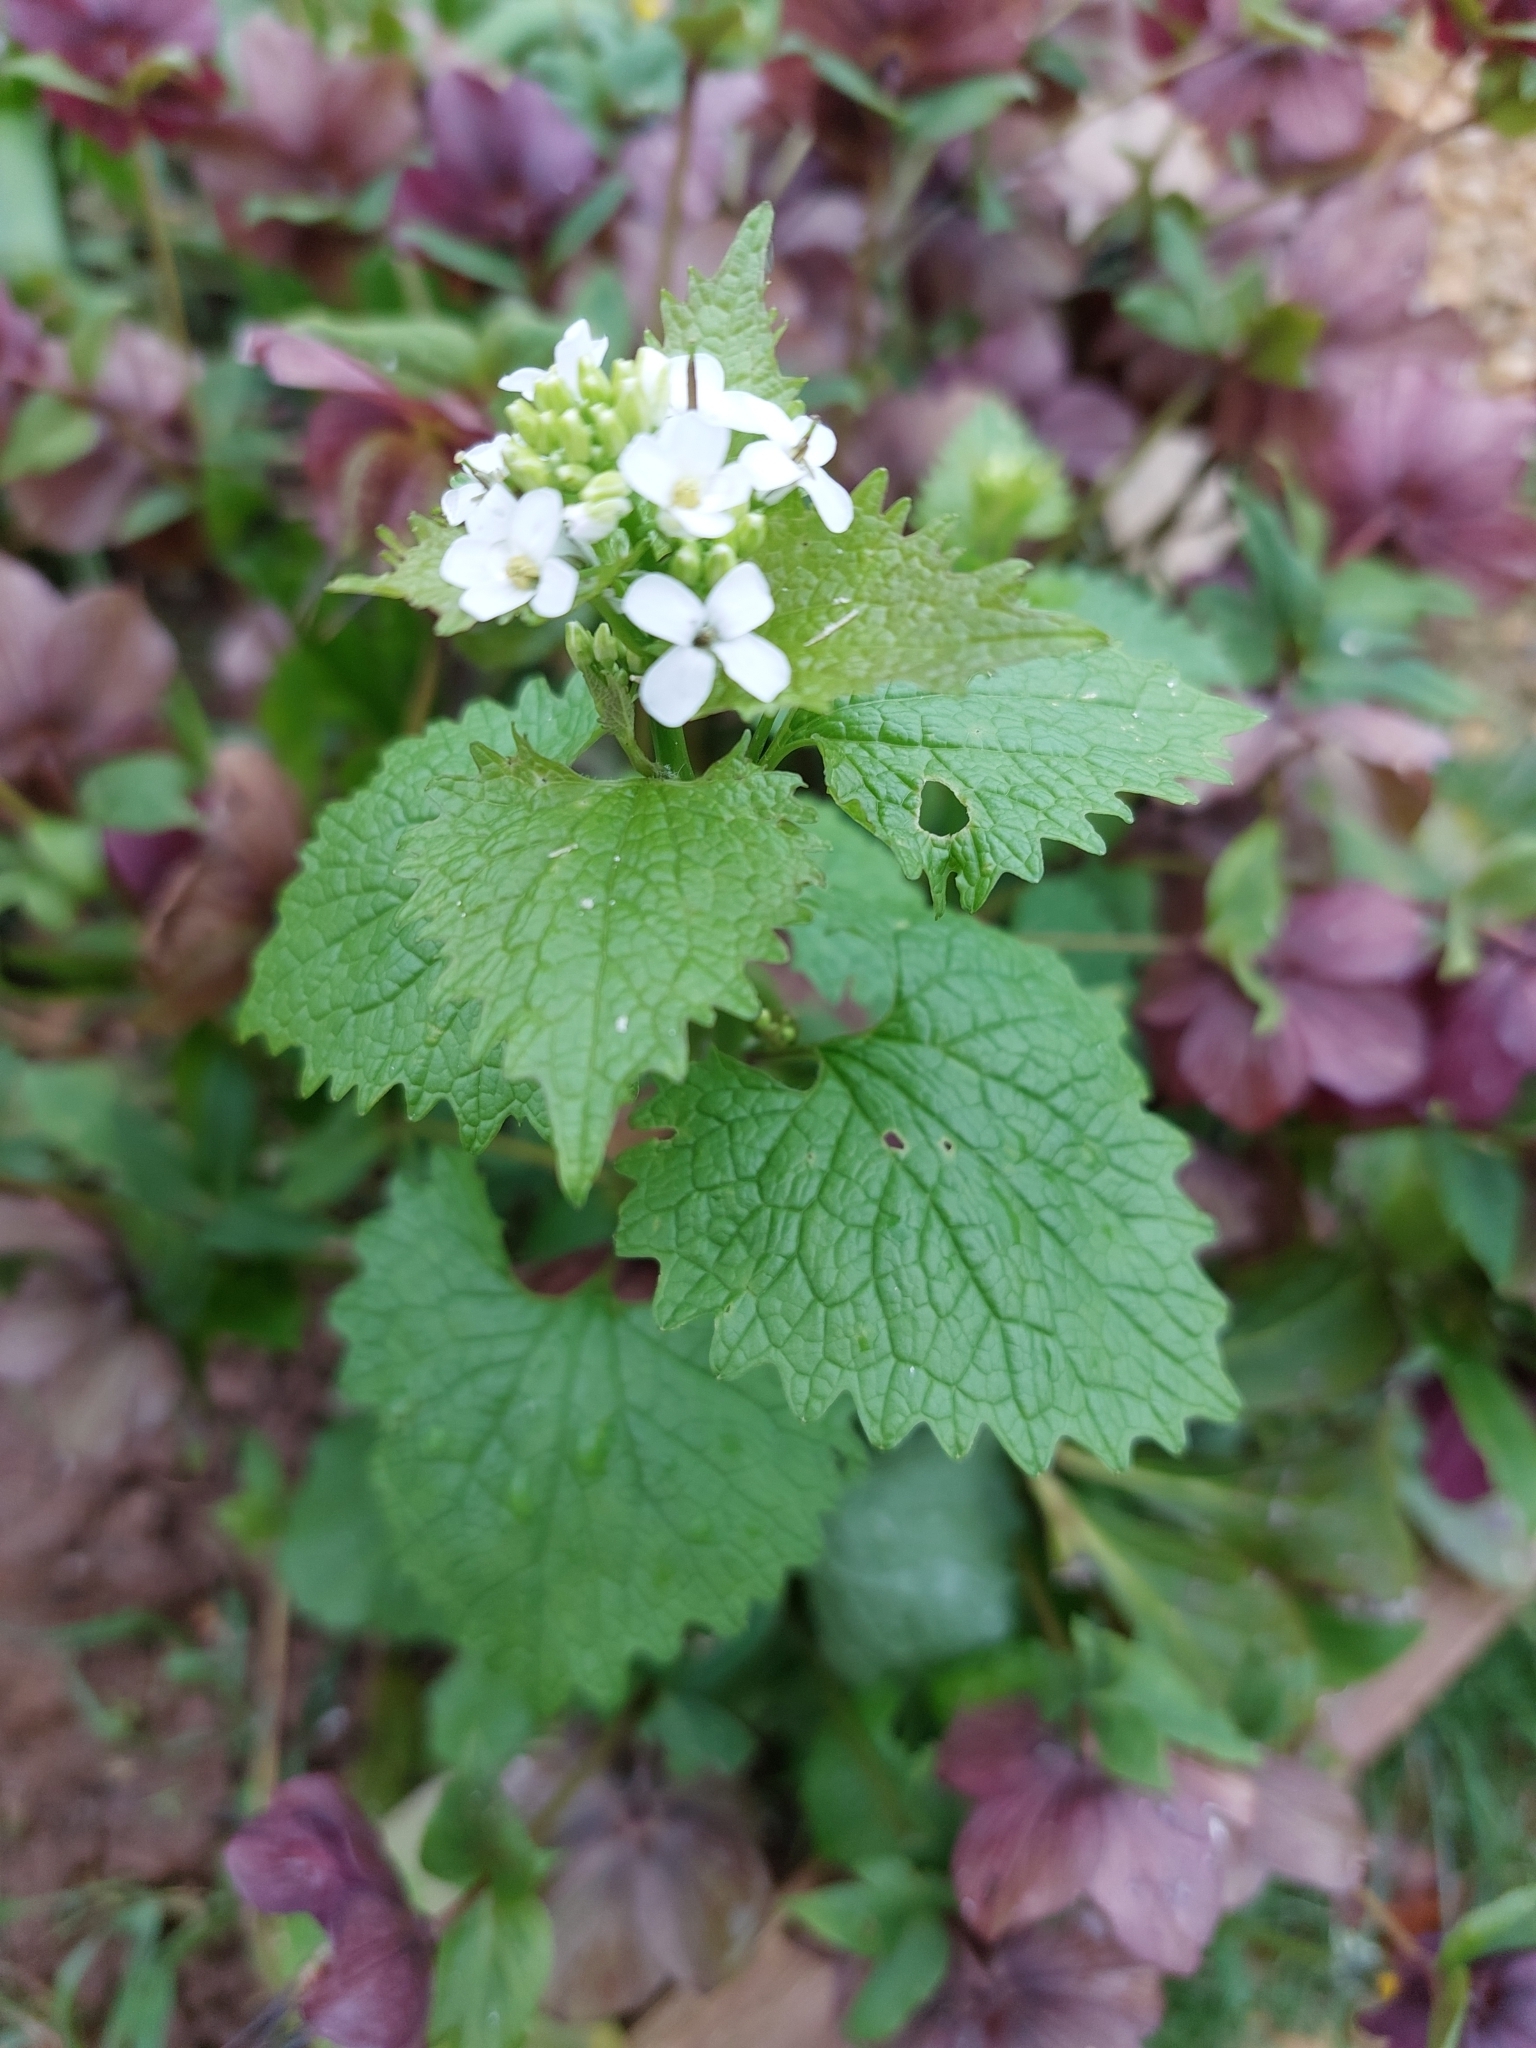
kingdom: Plantae
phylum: Tracheophyta
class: Magnoliopsida
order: Brassicales
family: Brassicaceae
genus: Alliaria
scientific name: Alliaria petiolata
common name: Garlic mustard
